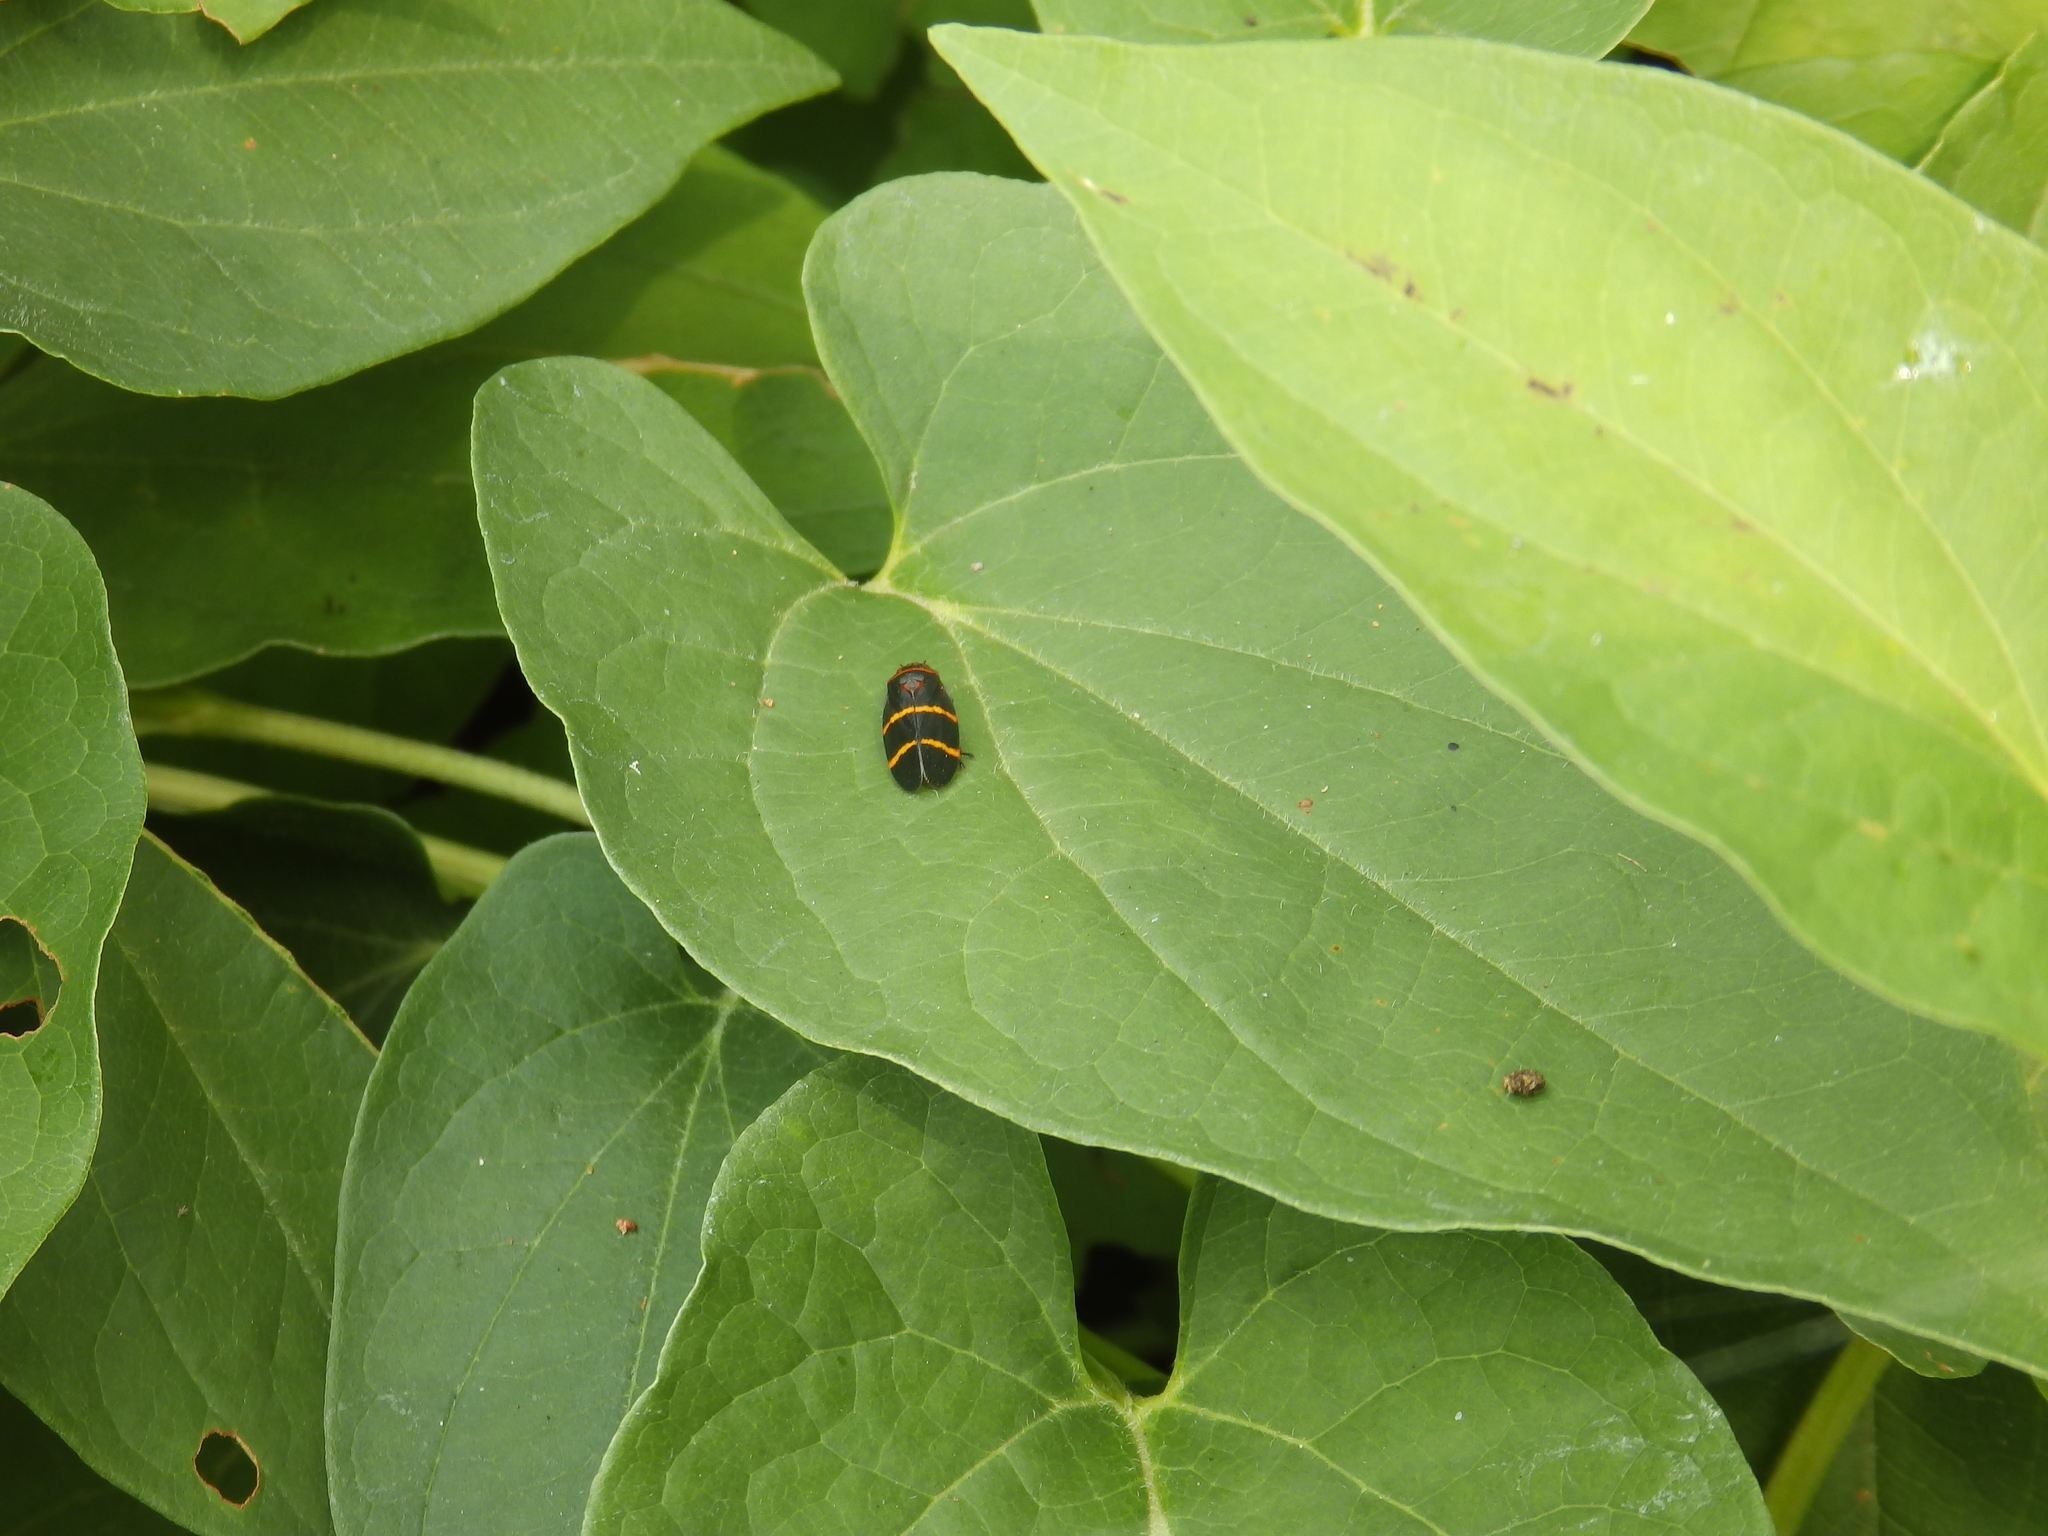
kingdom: Animalia
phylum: Arthropoda
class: Insecta
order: Hemiptera
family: Cercopidae
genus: Prosapia
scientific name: Prosapia bicincta
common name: Twolined spittlebug
